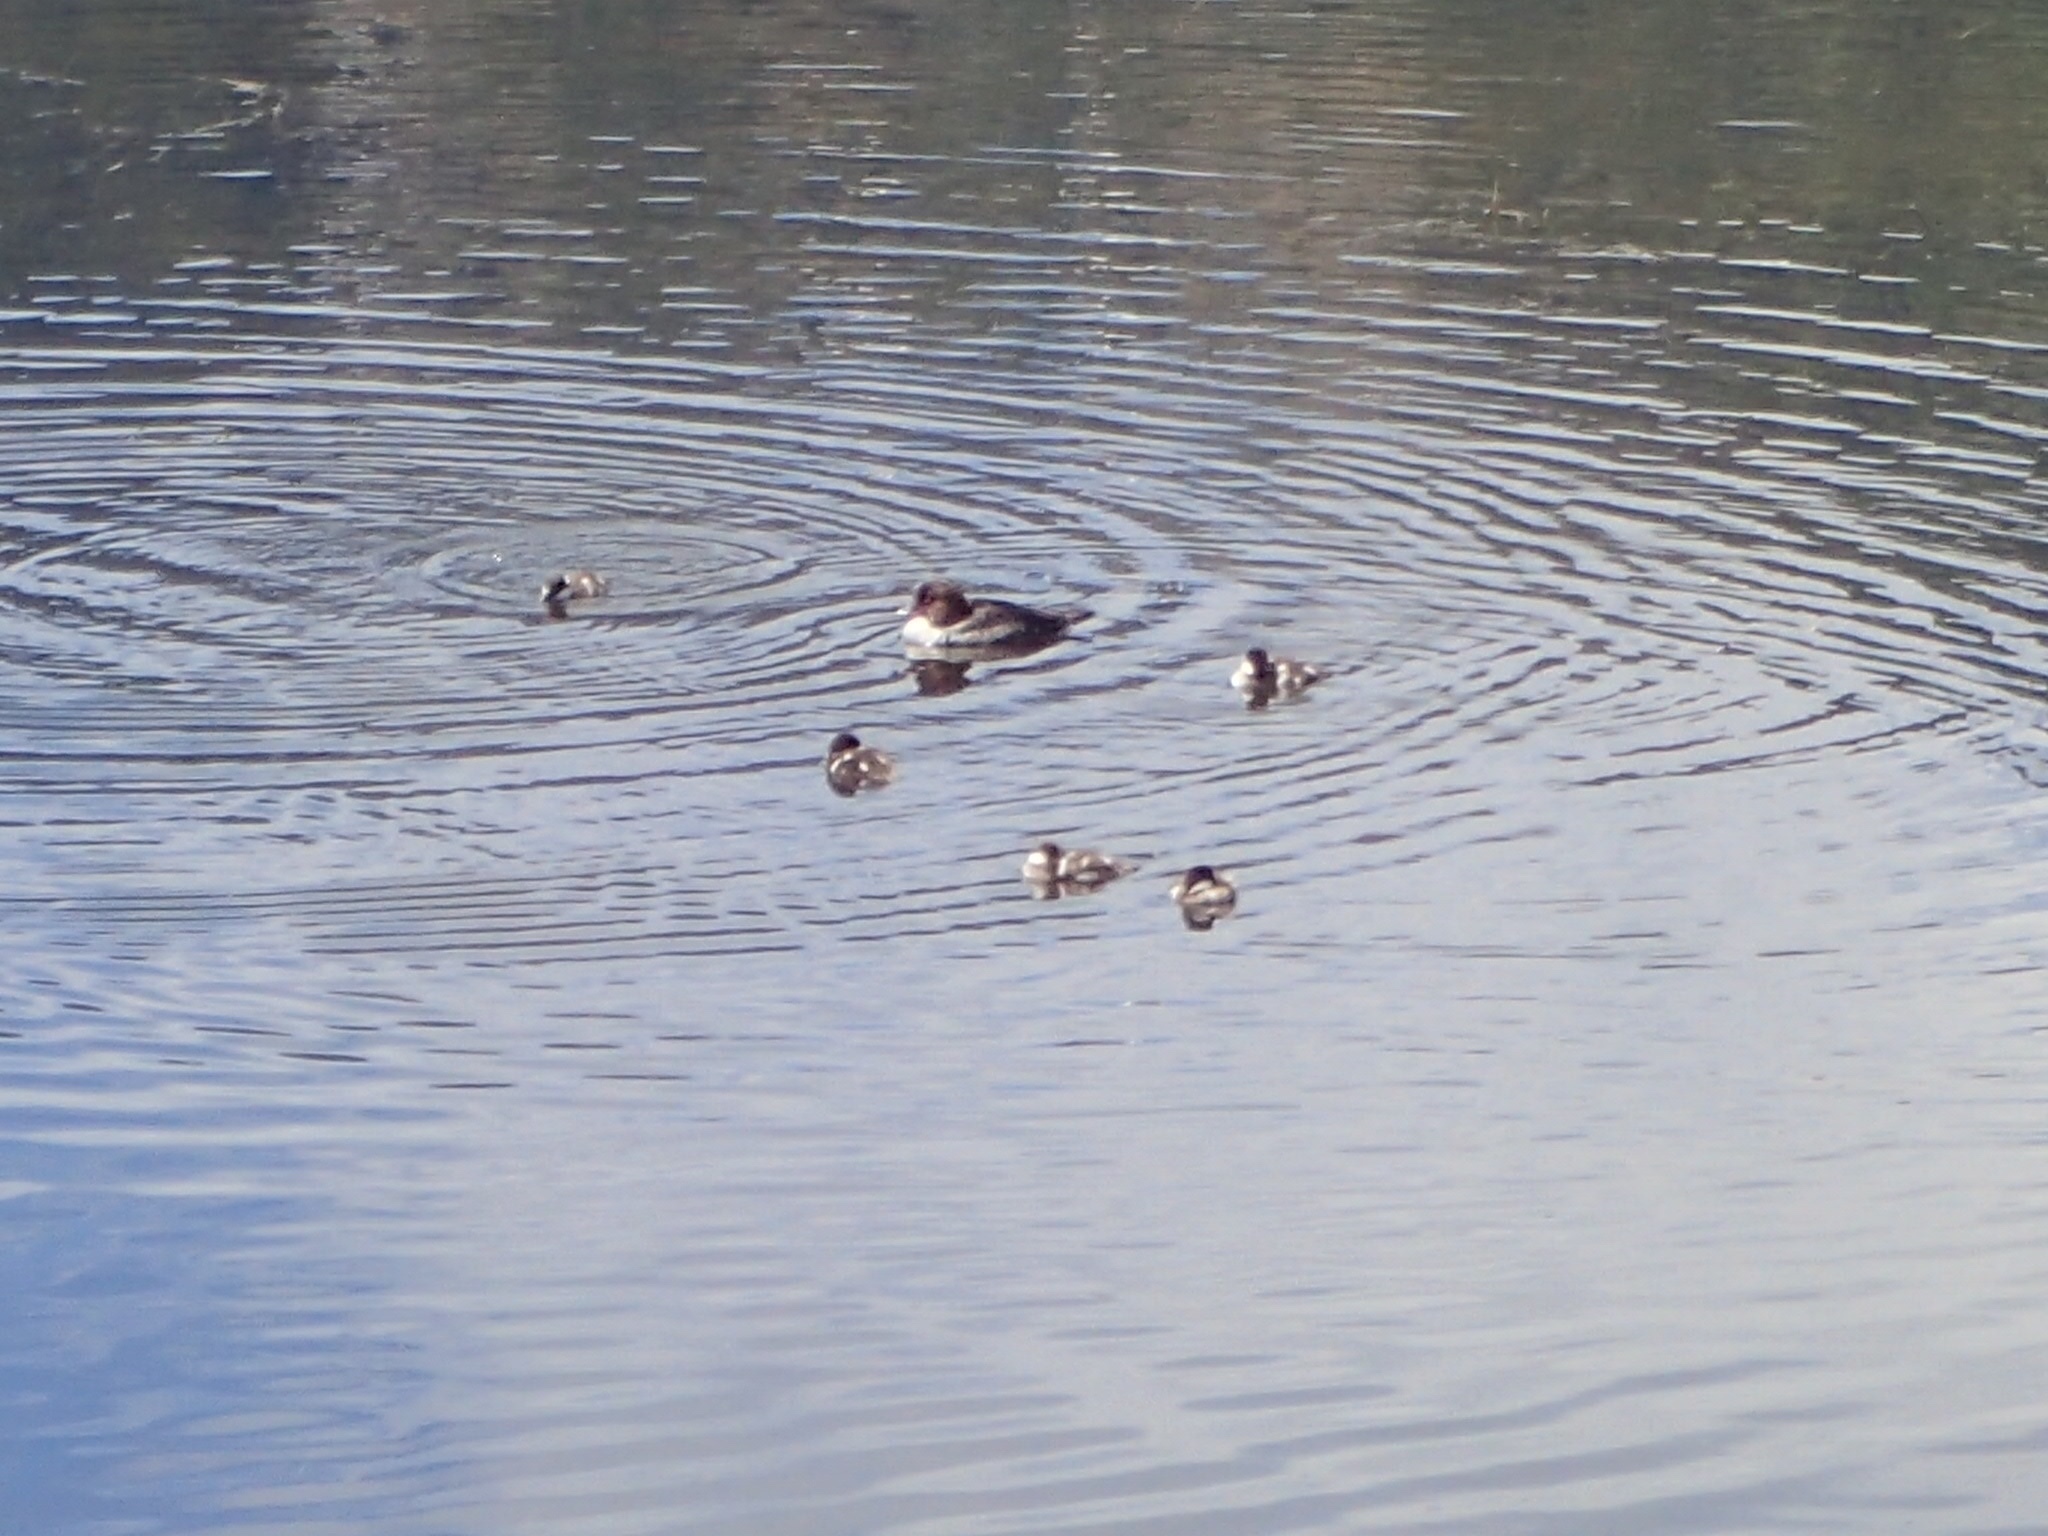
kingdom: Animalia
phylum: Chordata
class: Aves
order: Anseriformes
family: Anatidae
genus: Bucephala
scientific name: Bucephala clangula
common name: Common goldeneye
